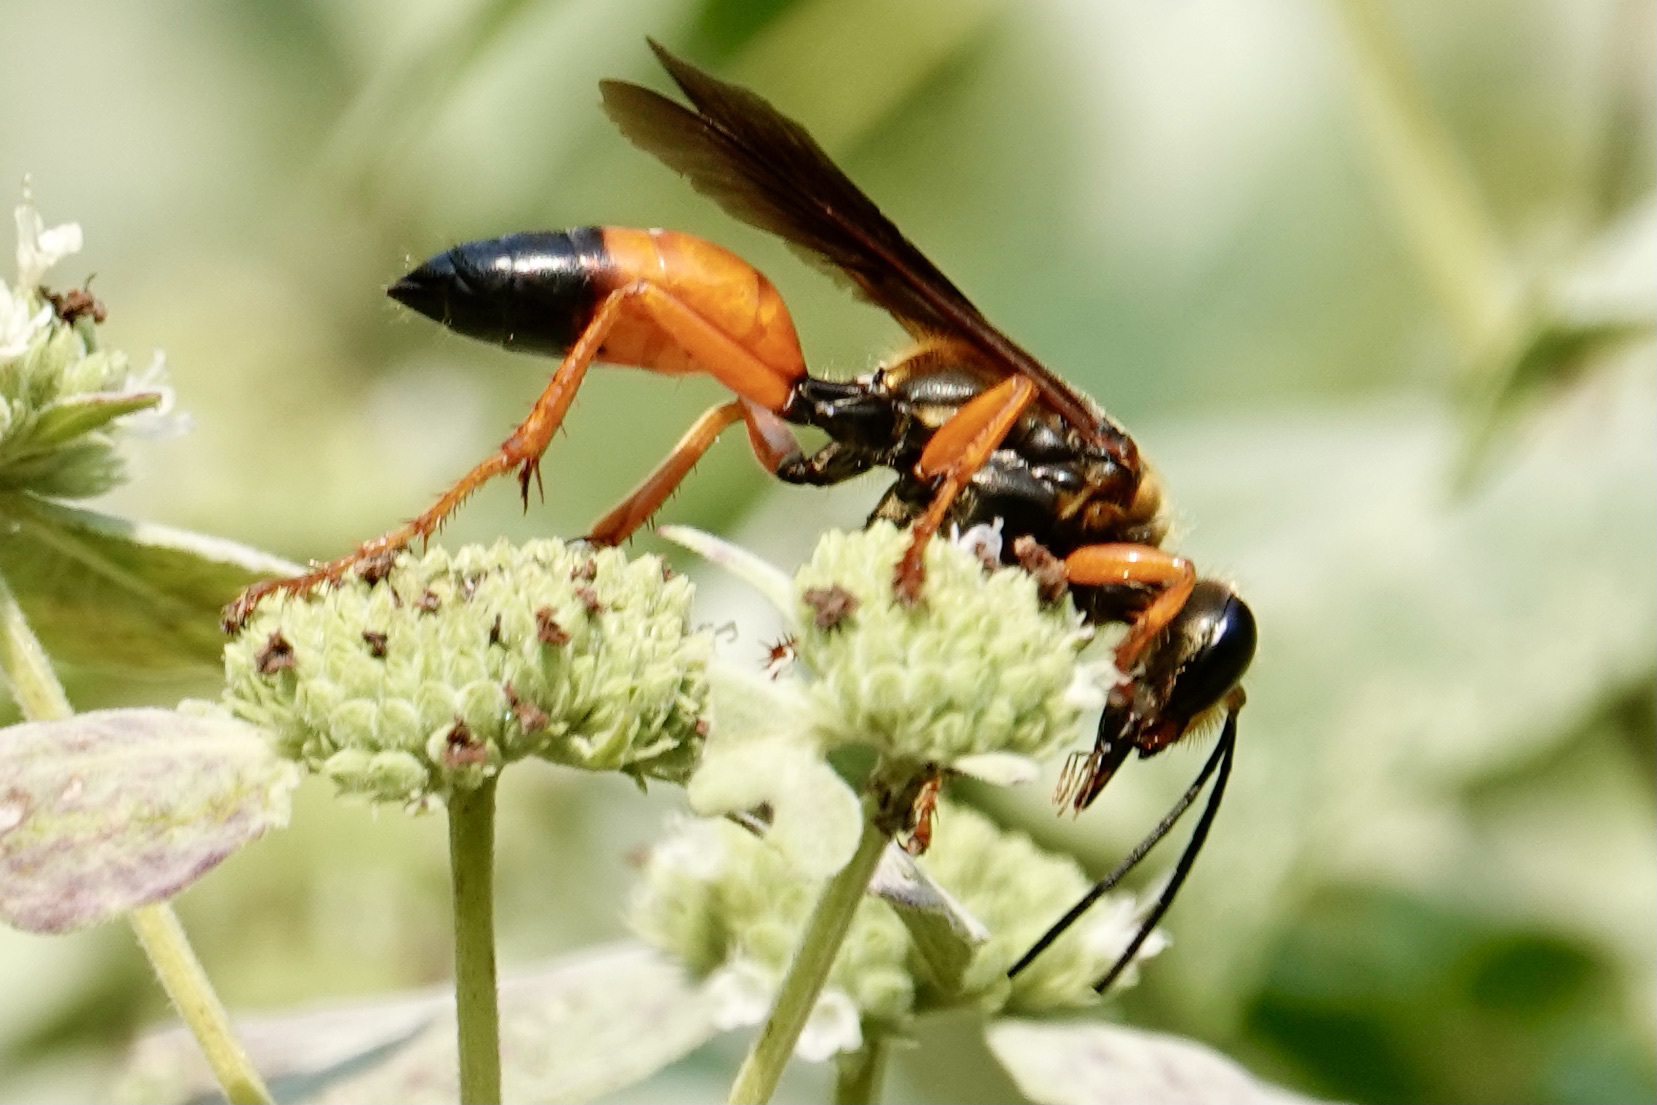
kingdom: Animalia
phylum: Arthropoda
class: Insecta
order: Hymenoptera
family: Sphecidae
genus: Sphex
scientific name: Sphex ichneumoneus
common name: Great golden digger wasp
